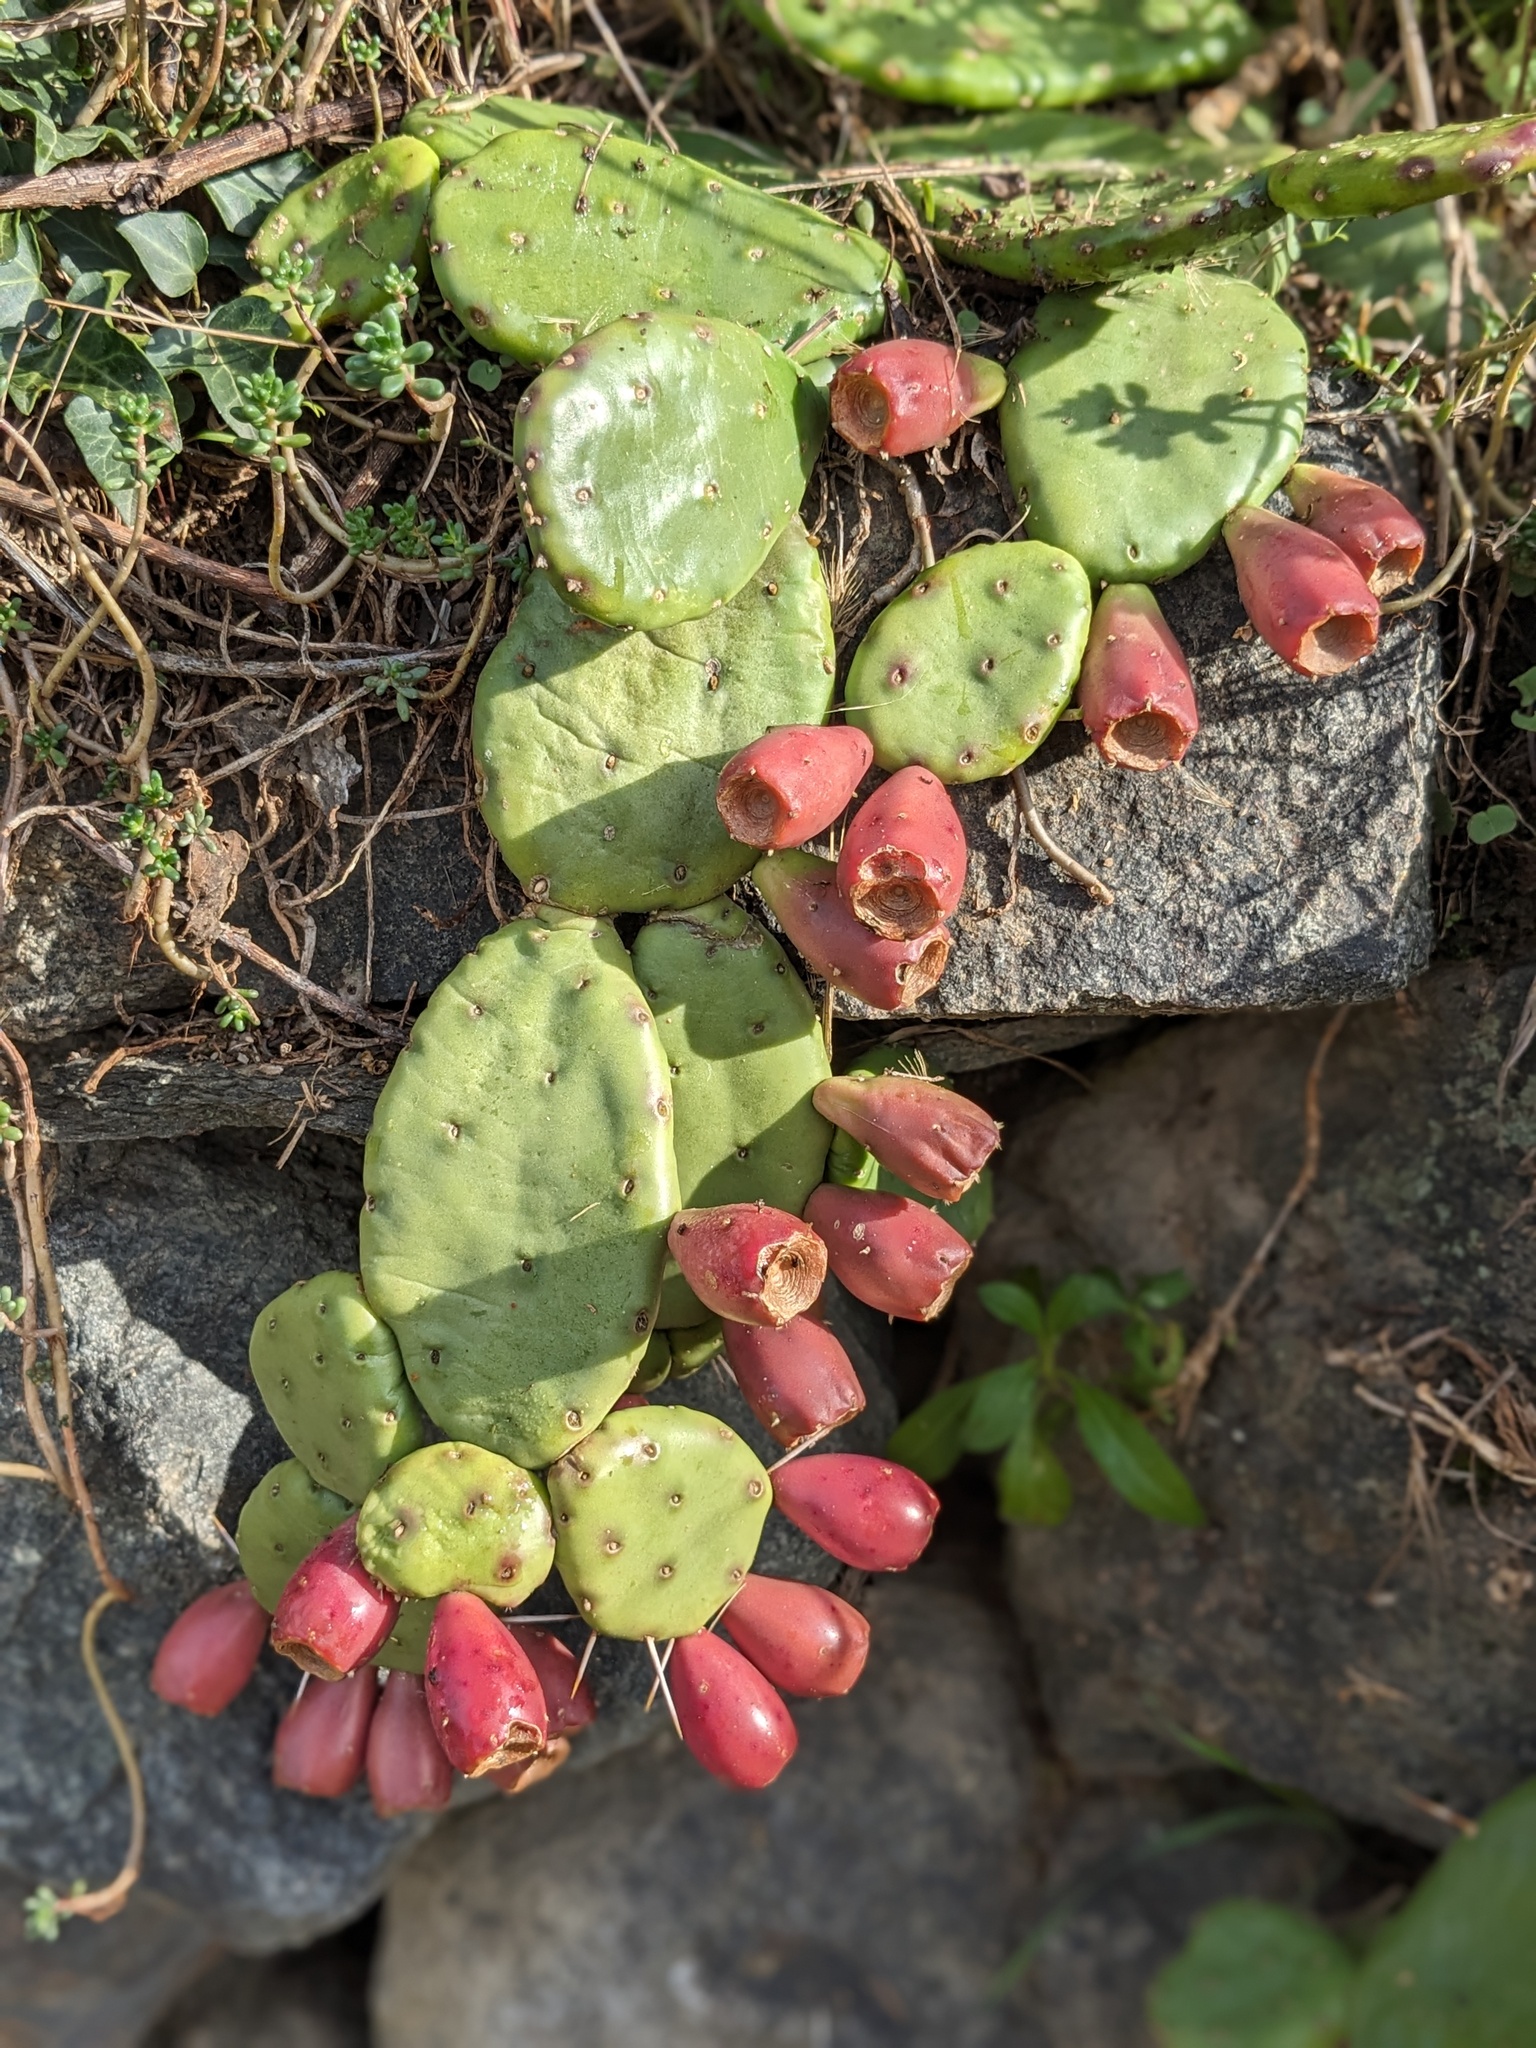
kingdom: Plantae
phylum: Tracheophyta
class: Magnoliopsida
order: Caryophyllales
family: Cactaceae
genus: Opuntia
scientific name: Opuntia humifusa
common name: Eastern prickly-pear
